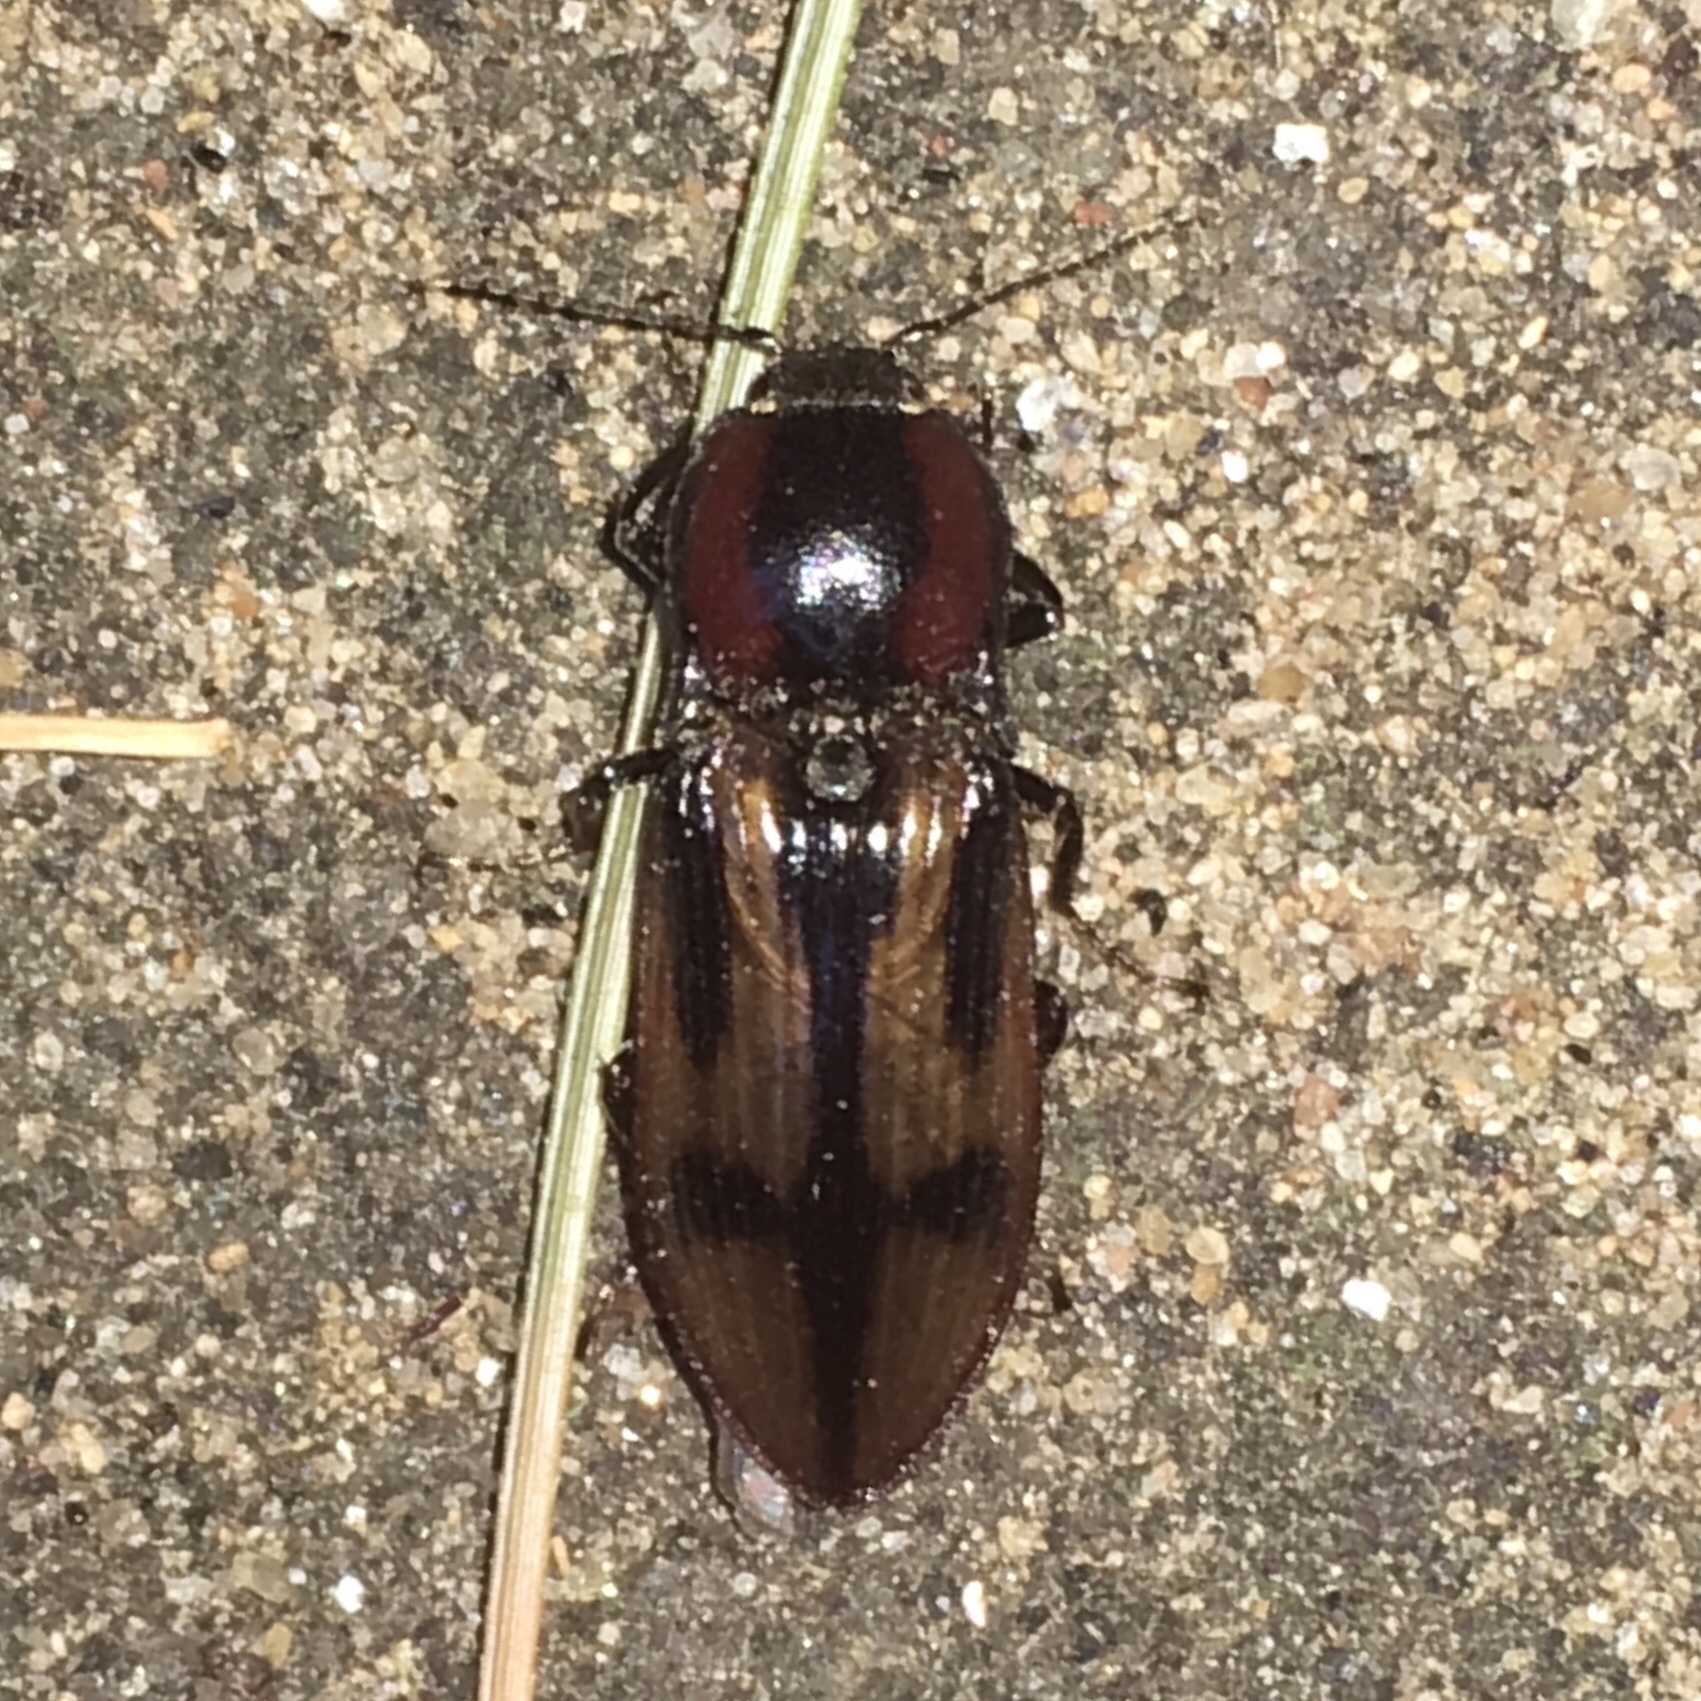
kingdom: Animalia
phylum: Arthropoda
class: Insecta
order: Coleoptera
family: Elateridae
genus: Selatosomus
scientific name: Selatosomus pulcher
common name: Noble click beetle
